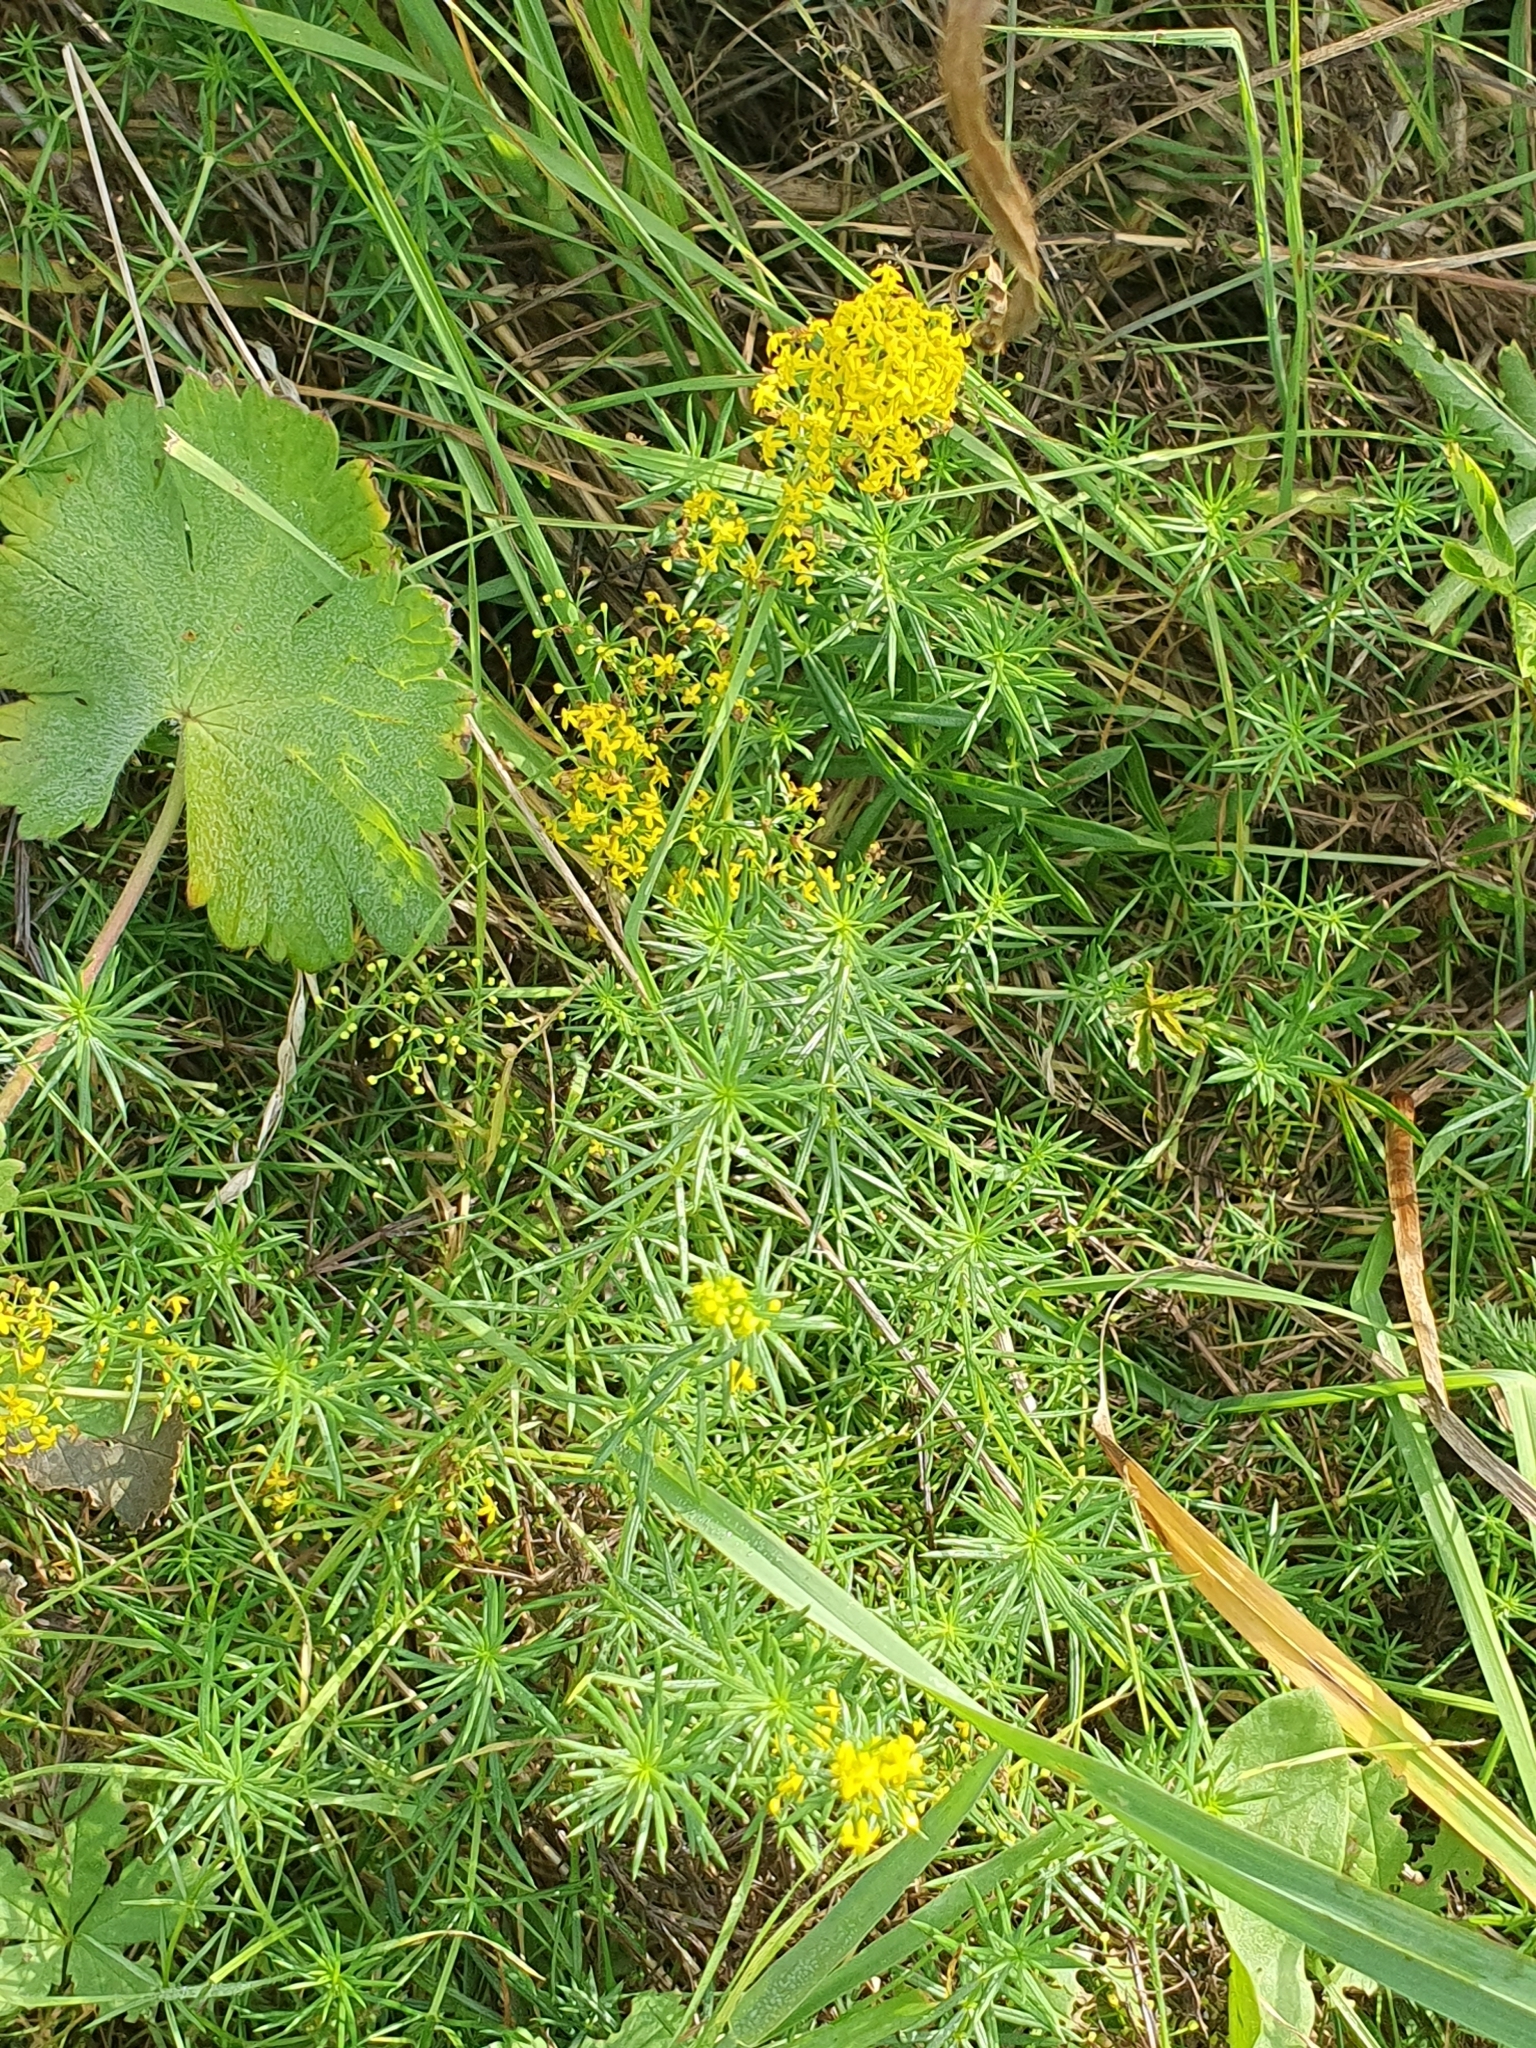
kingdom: Plantae
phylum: Tracheophyta
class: Magnoliopsida
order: Gentianales
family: Rubiaceae
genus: Galium
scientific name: Galium verum
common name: Lady's bedstraw
